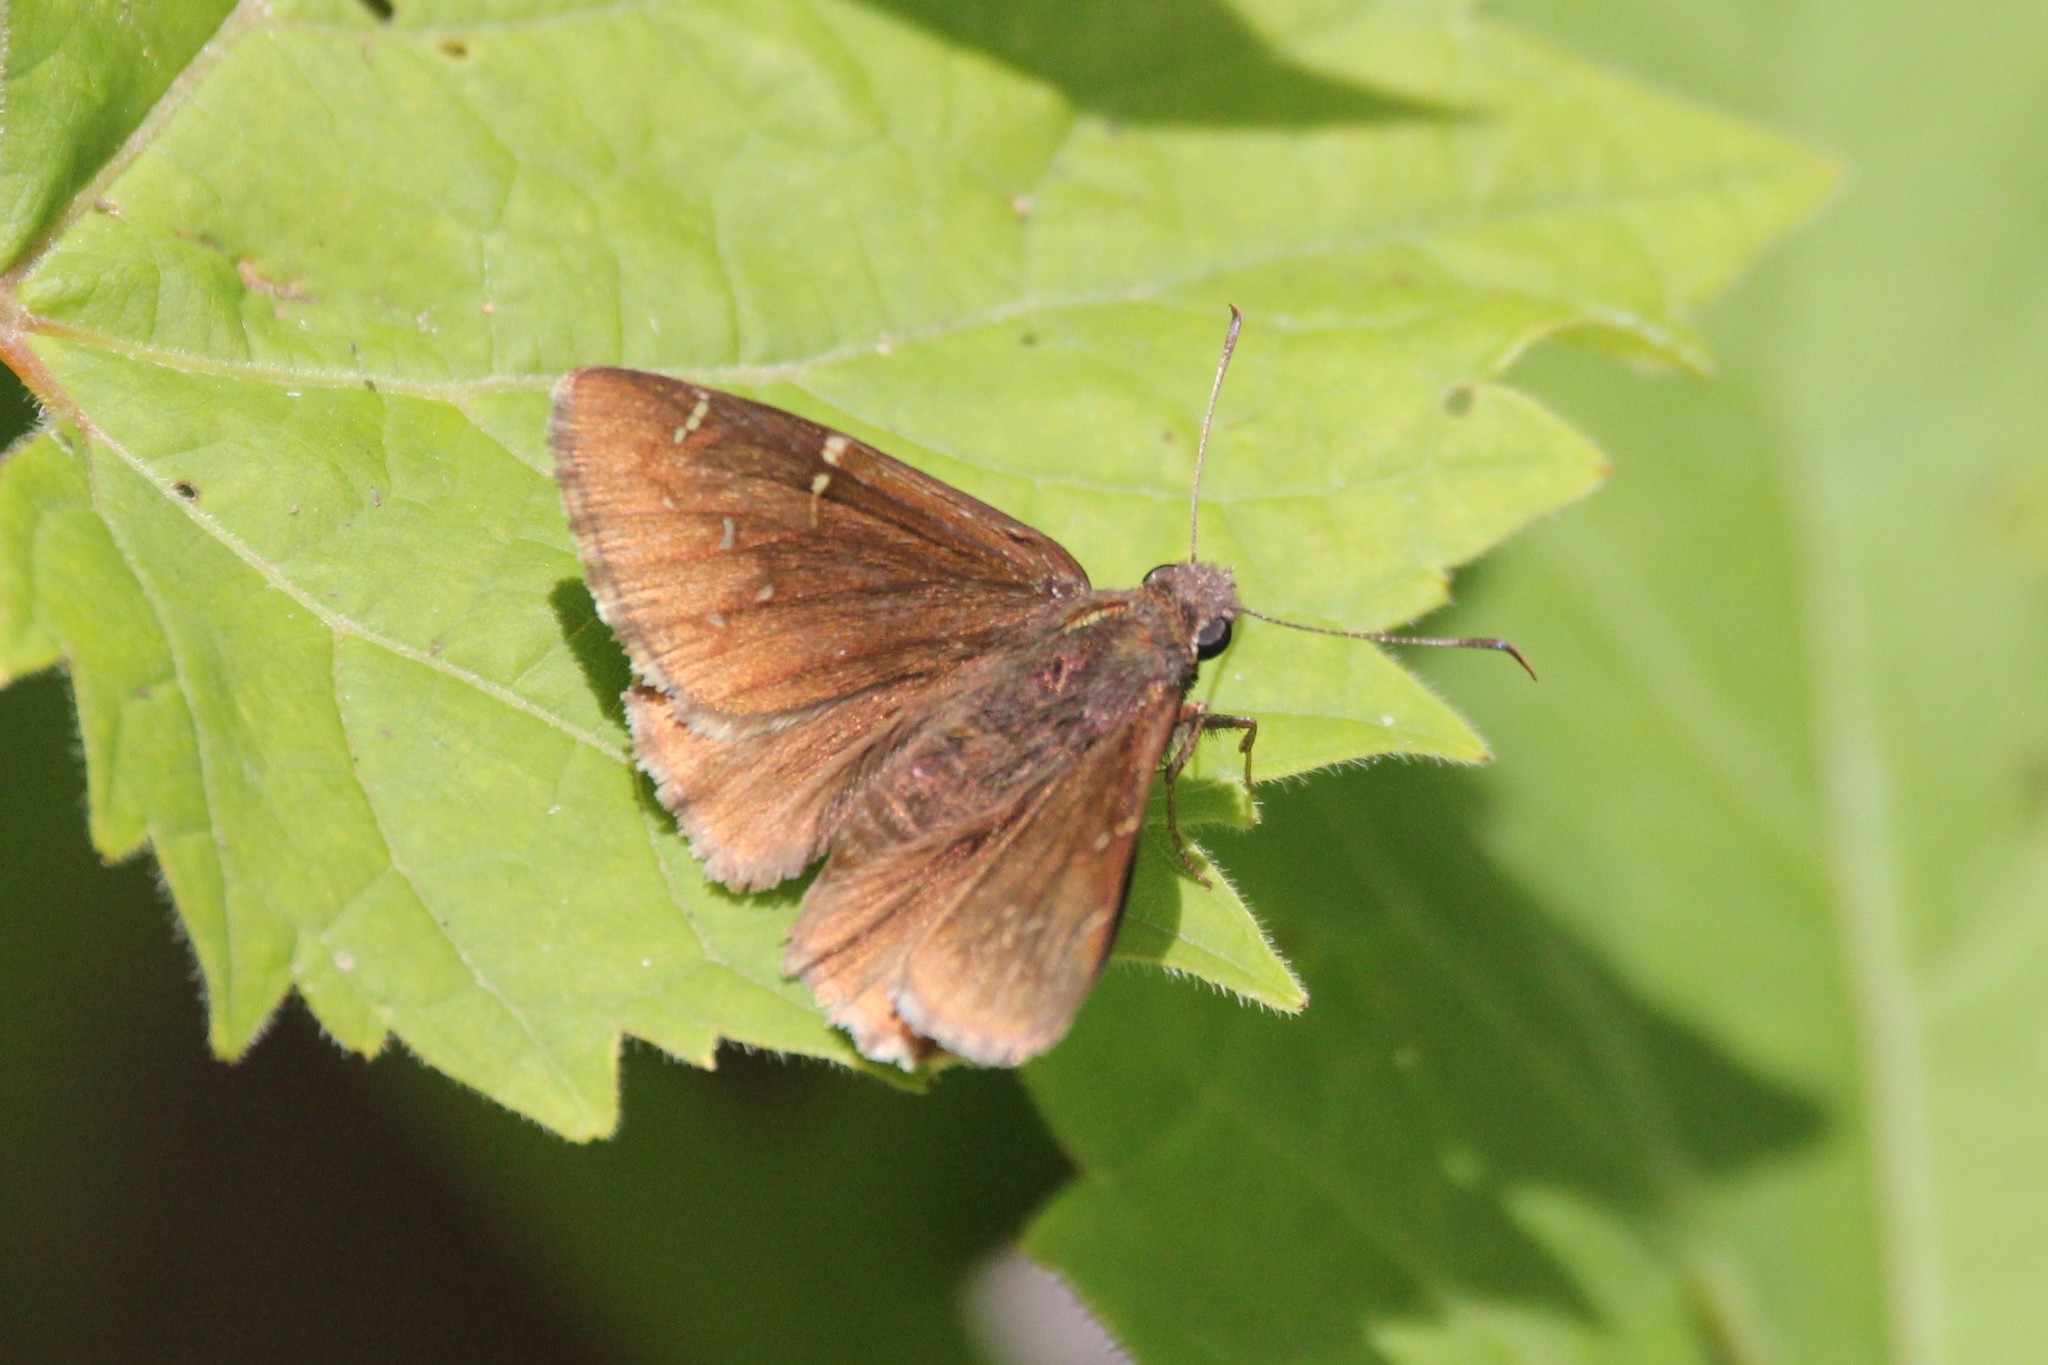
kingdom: Animalia
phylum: Arthropoda
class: Insecta
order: Lepidoptera
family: Hesperiidae
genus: Thorybes
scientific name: Thorybes pylades
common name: Northern cloudywing
